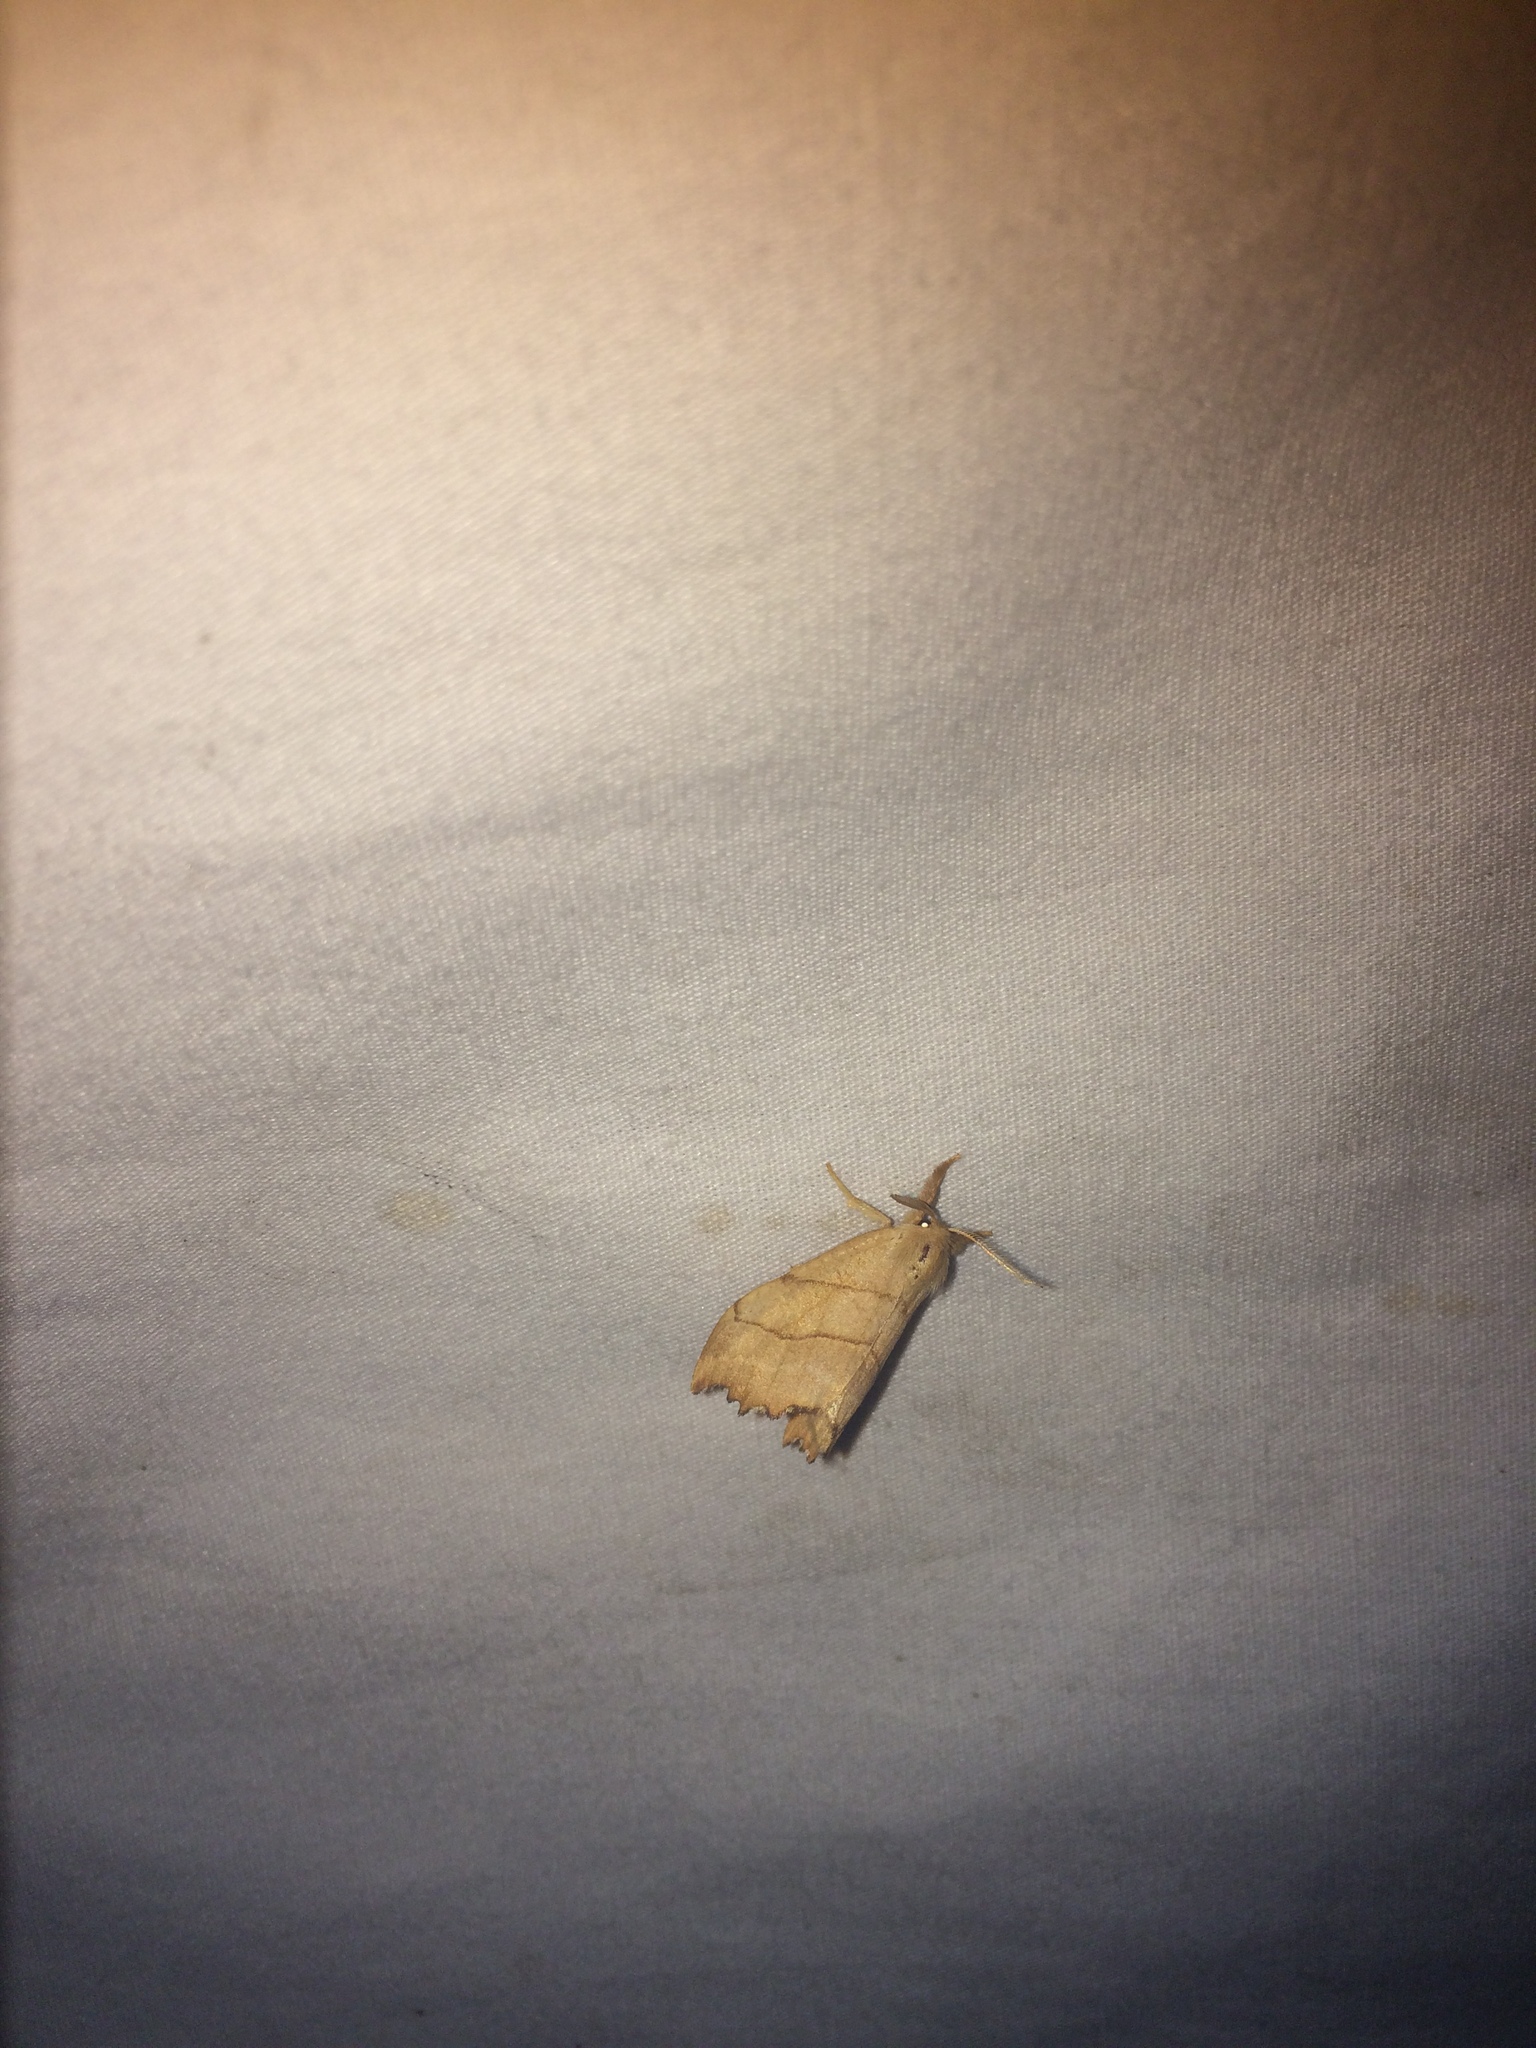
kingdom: Animalia
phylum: Arthropoda
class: Insecta
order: Lepidoptera
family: Drepanidae
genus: Falcaria
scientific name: Falcaria bilineata
